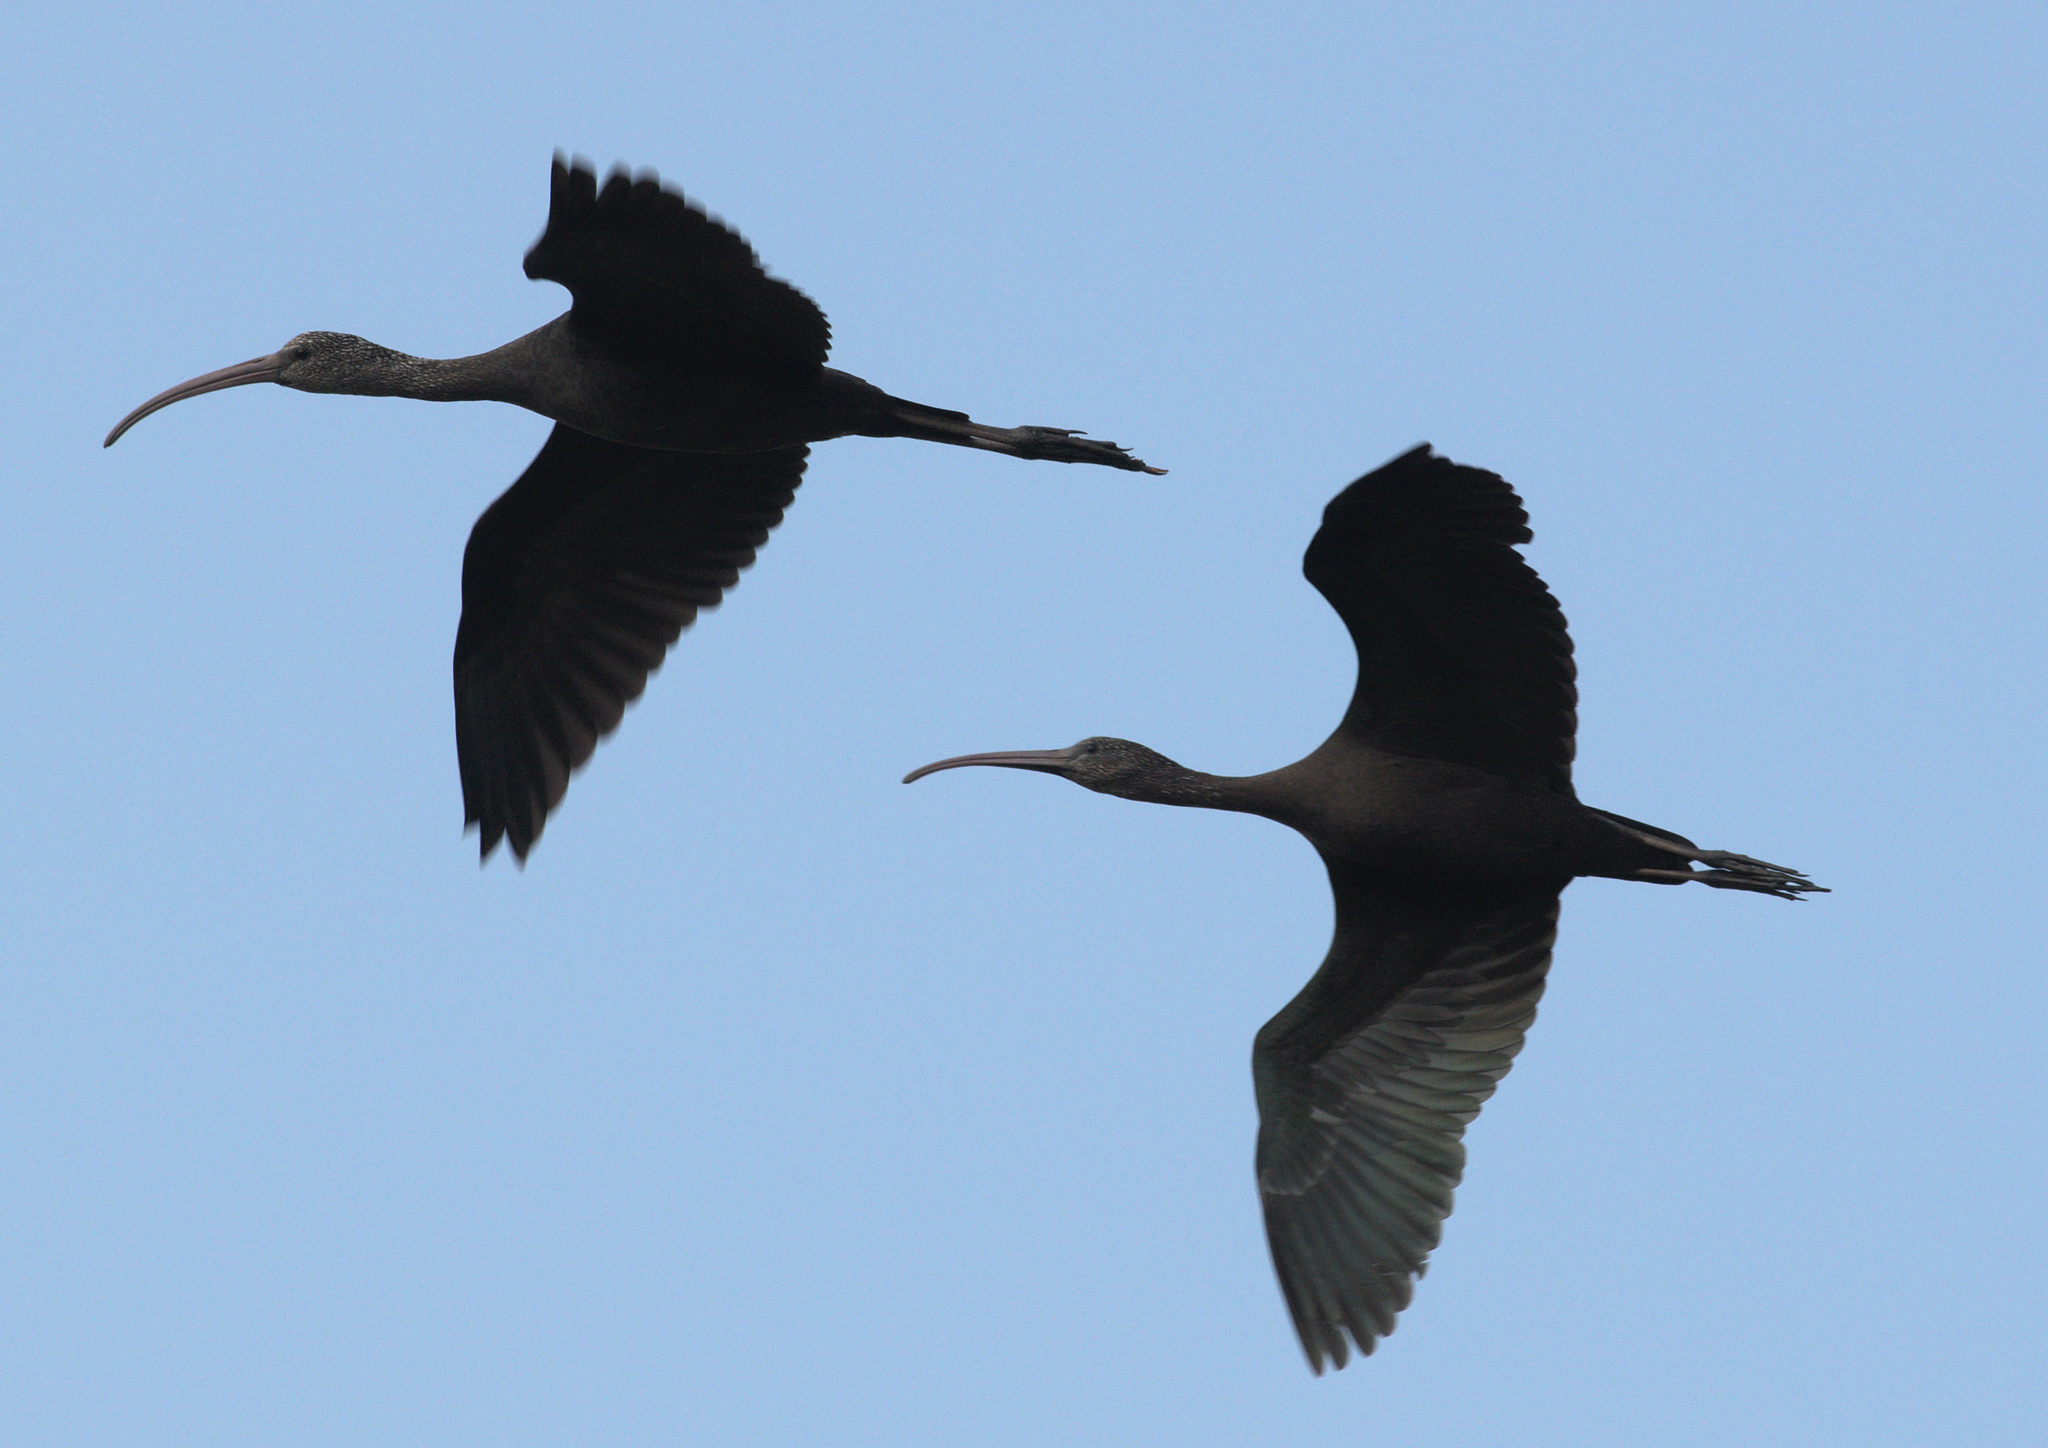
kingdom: Animalia
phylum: Chordata
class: Aves
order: Pelecaniformes
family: Threskiornithidae
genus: Plegadis
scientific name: Plegadis falcinellus
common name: Glossy ibis
